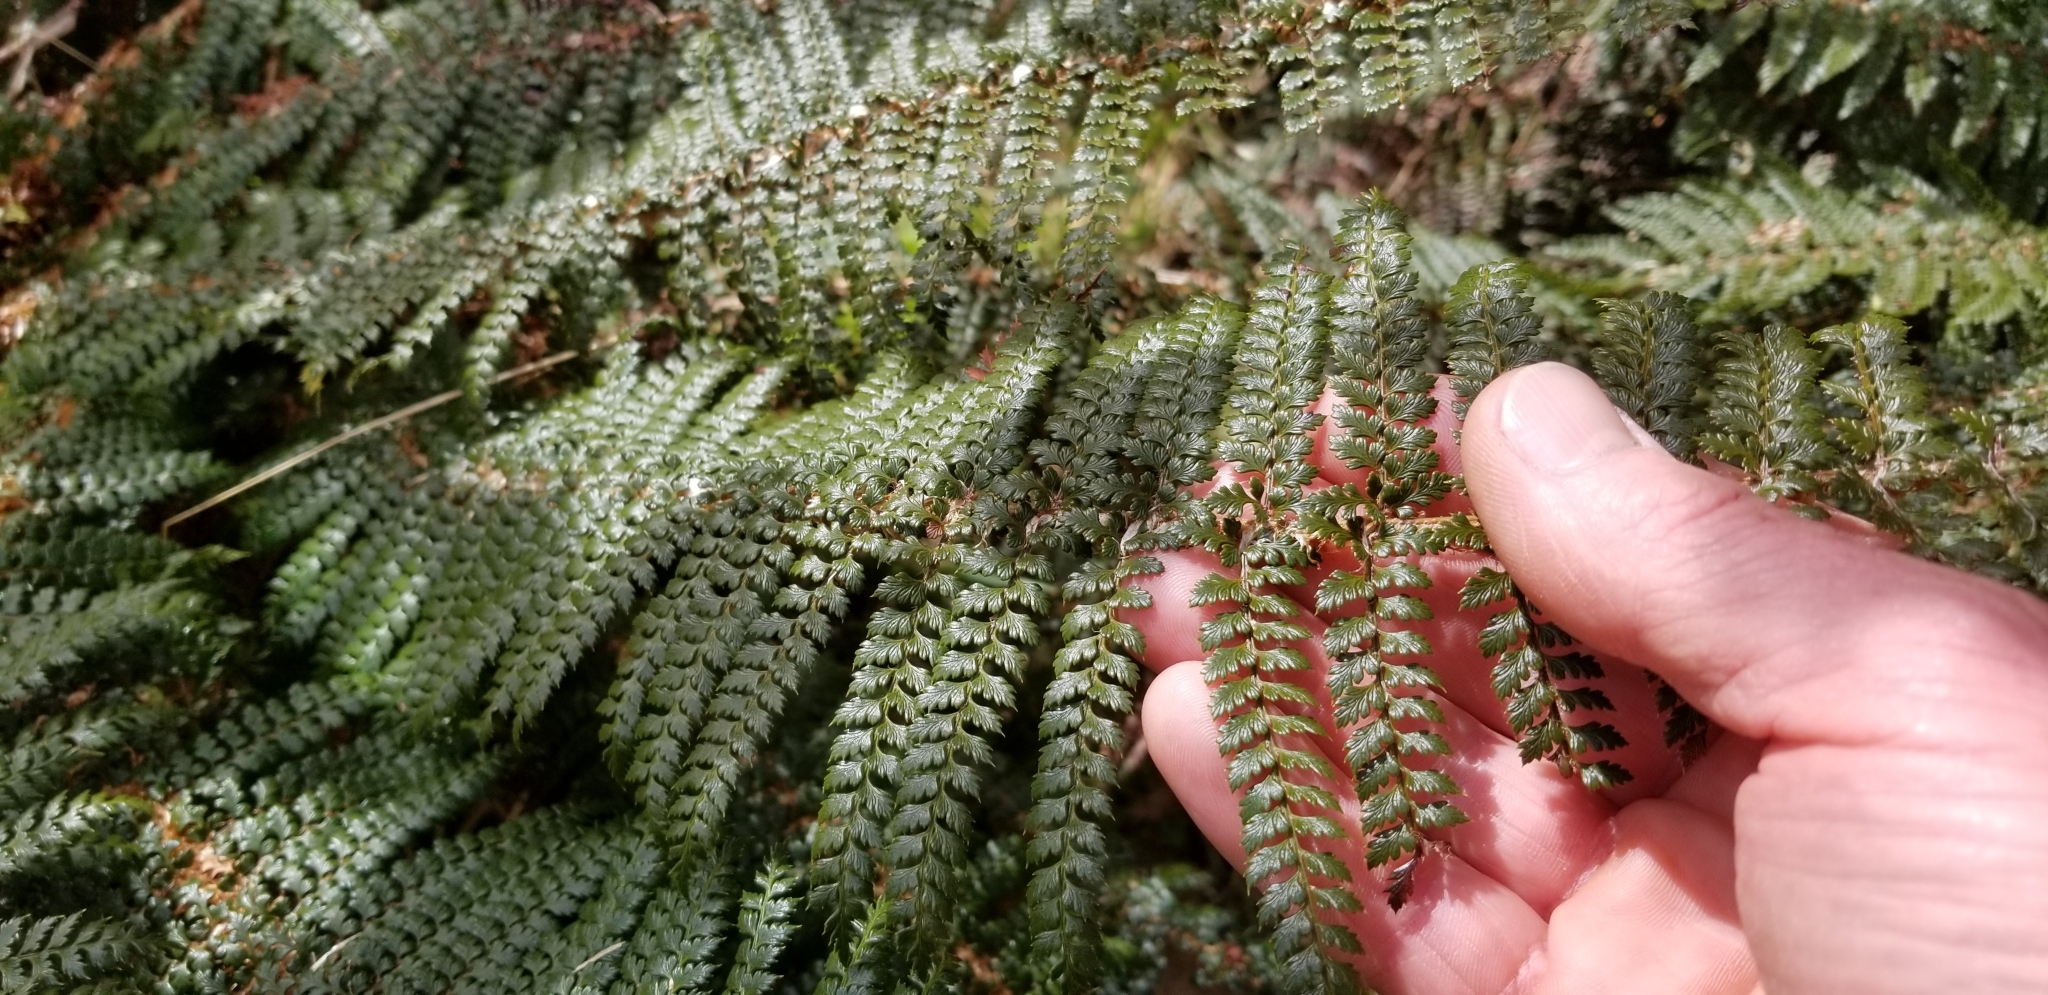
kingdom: Plantae
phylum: Tracheophyta
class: Polypodiopsida
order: Polypodiales
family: Dryopteridaceae
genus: Polystichum
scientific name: Polystichum vestitum
